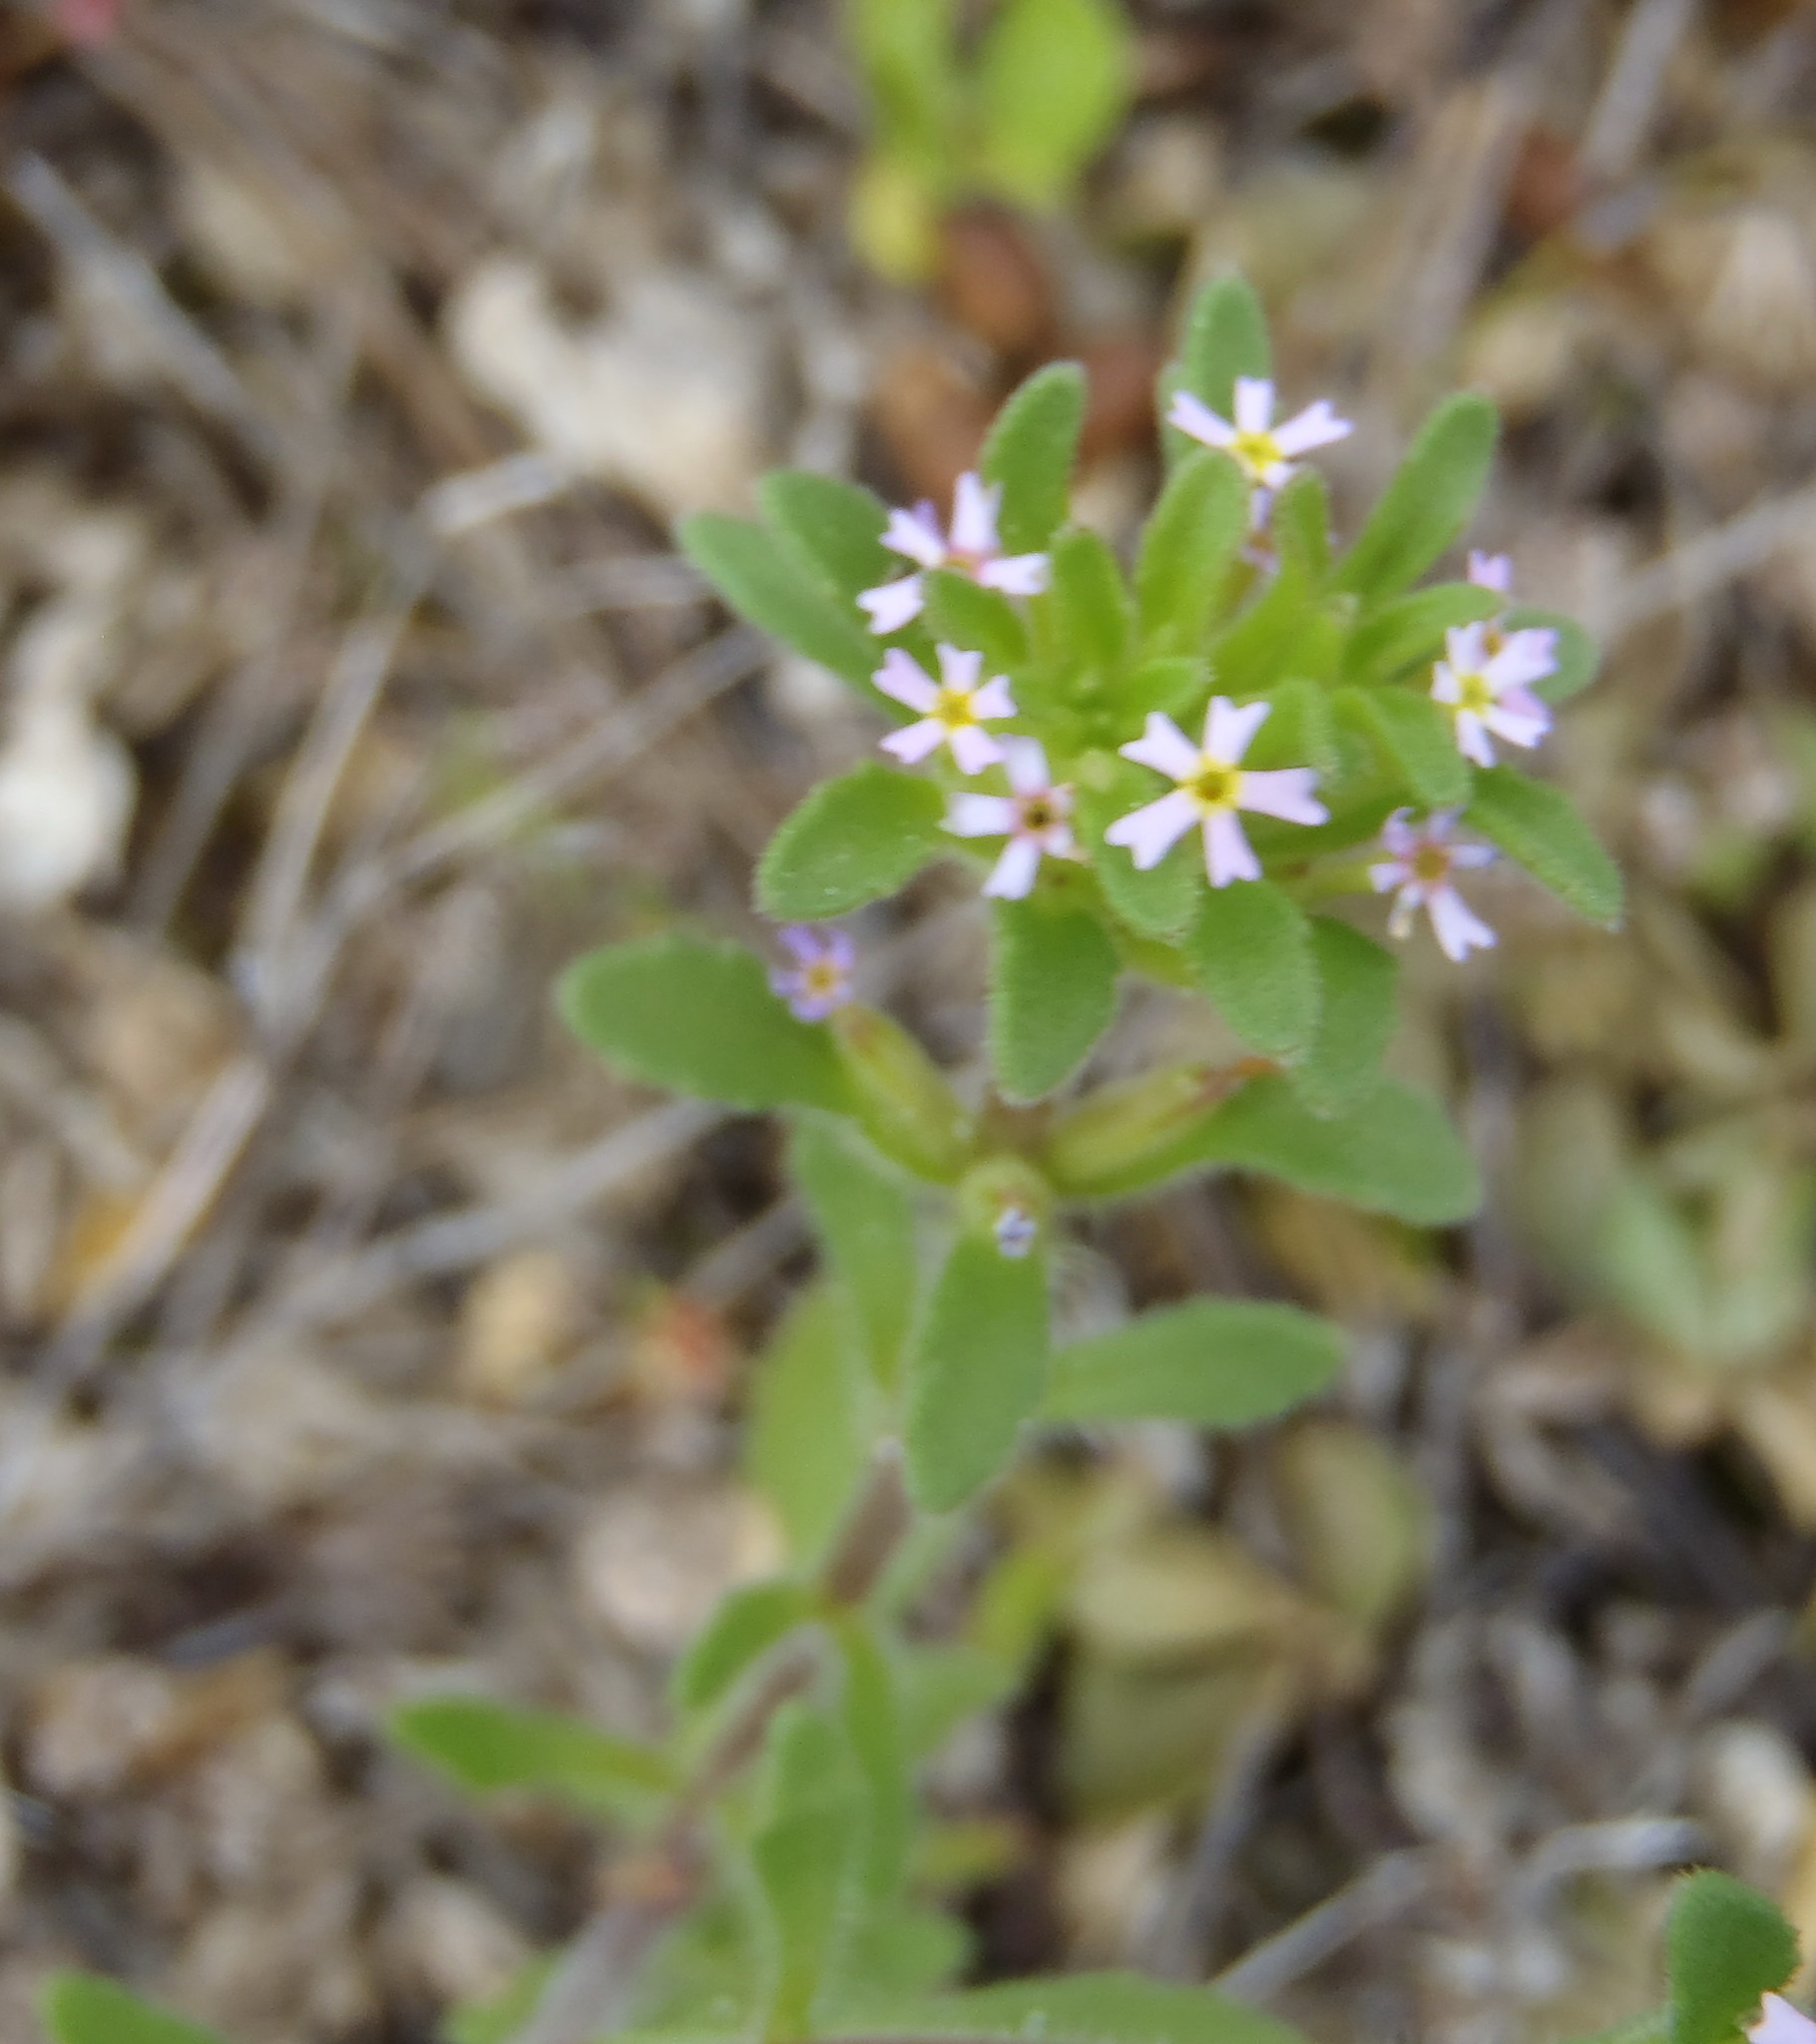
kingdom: Plantae
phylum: Tracheophyta
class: Magnoliopsida
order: Lamiales
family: Scrophulariaceae
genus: Zaluzianskya
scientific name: Zaluzianskya gracilis
